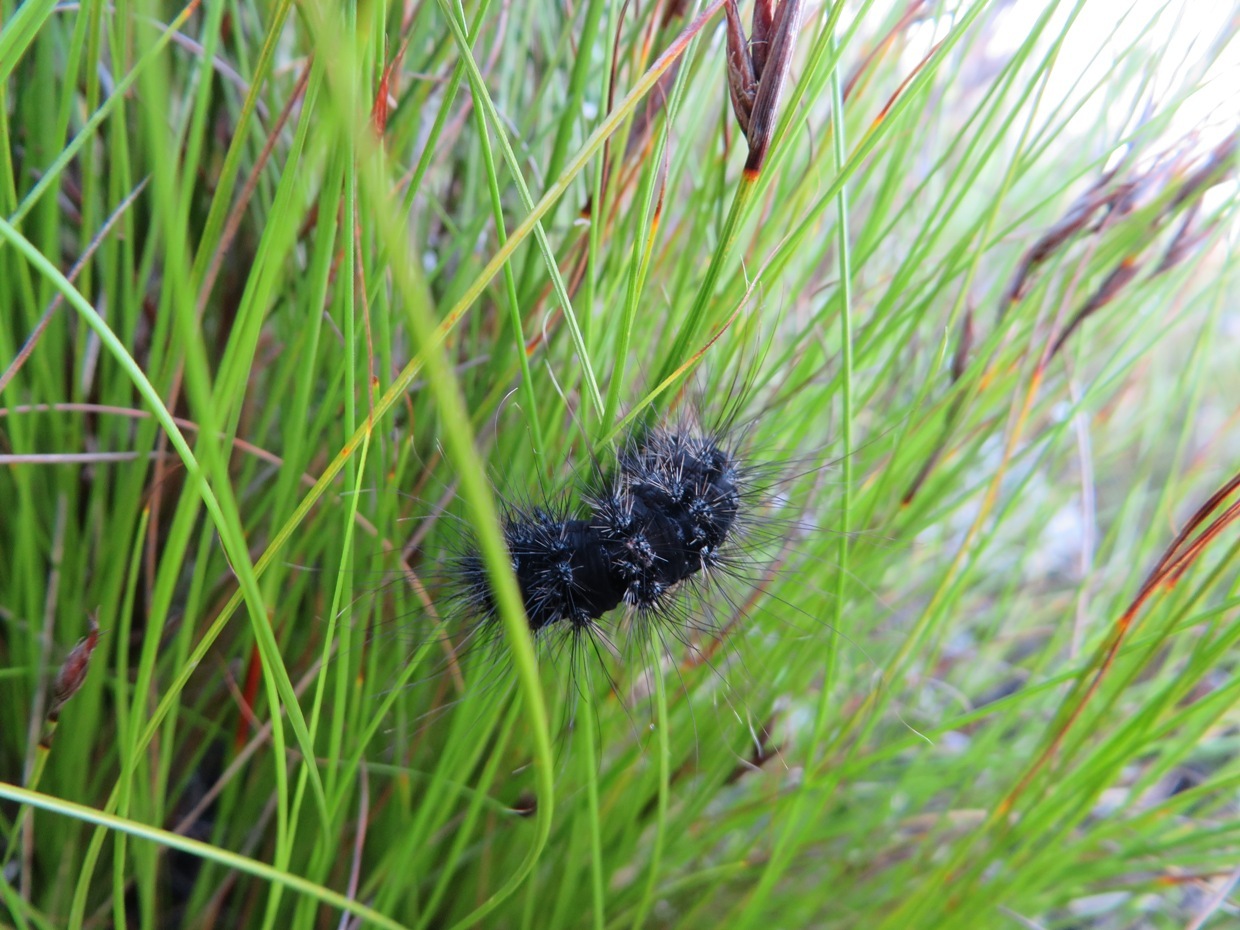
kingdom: Animalia
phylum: Arthropoda
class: Insecta
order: Lepidoptera
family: Erebidae
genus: Thyretes
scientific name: Thyretes hippotes
